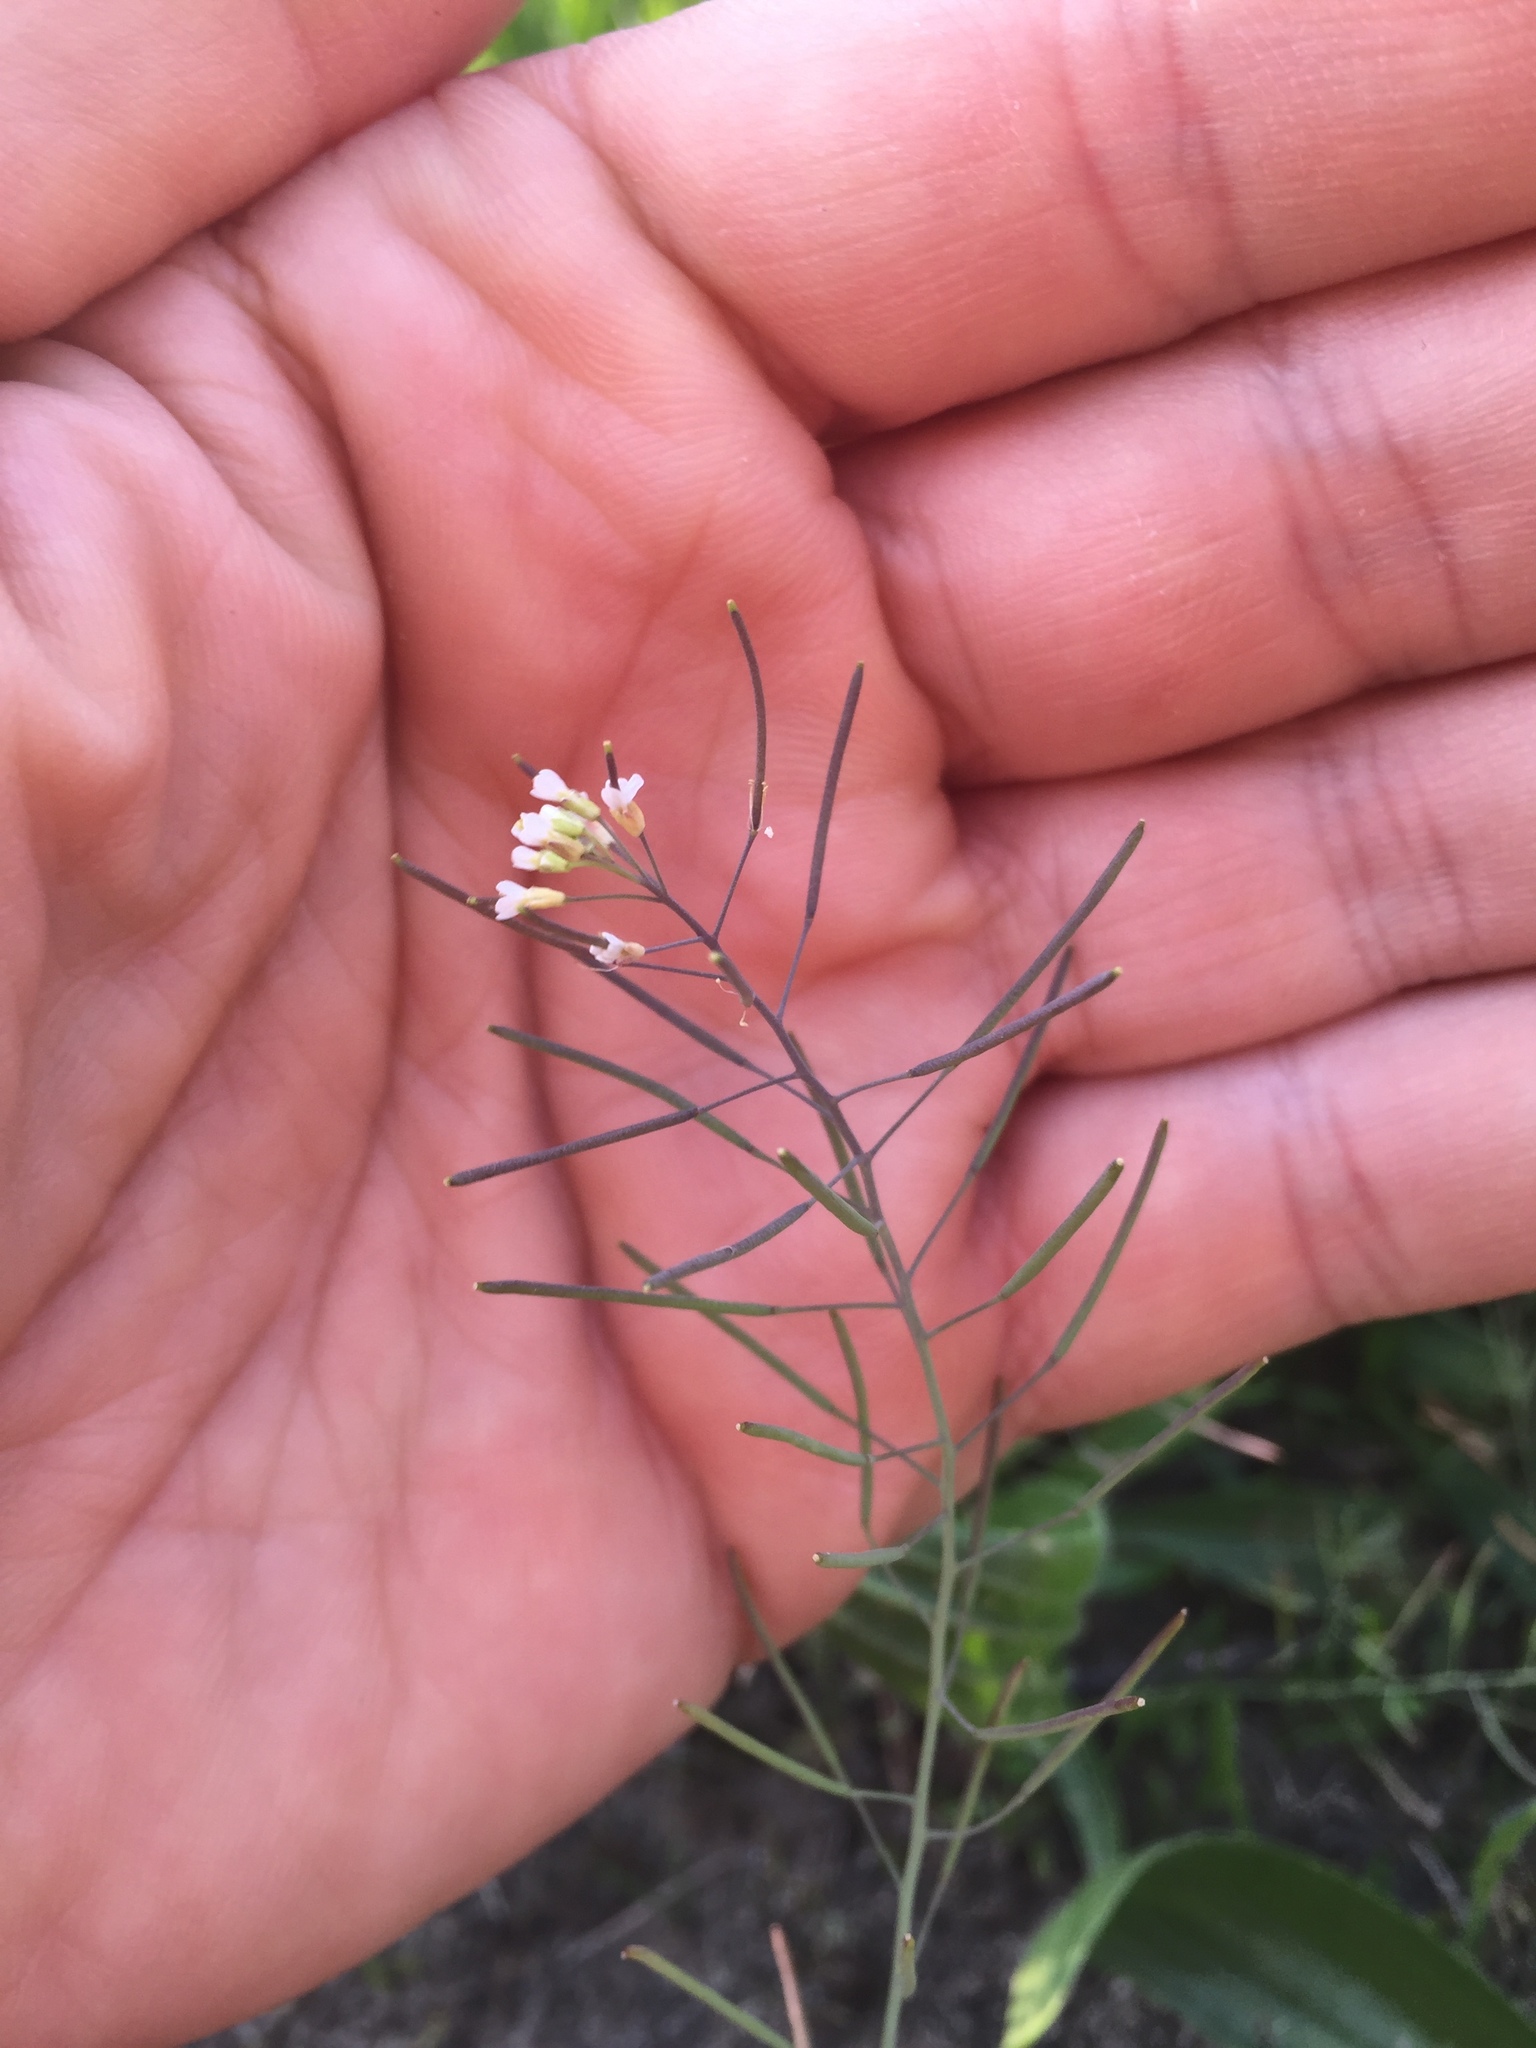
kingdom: Plantae
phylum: Tracheophyta
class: Magnoliopsida
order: Brassicales
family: Brassicaceae
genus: Arabidopsis
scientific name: Arabidopsis thaliana
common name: Thale cress
